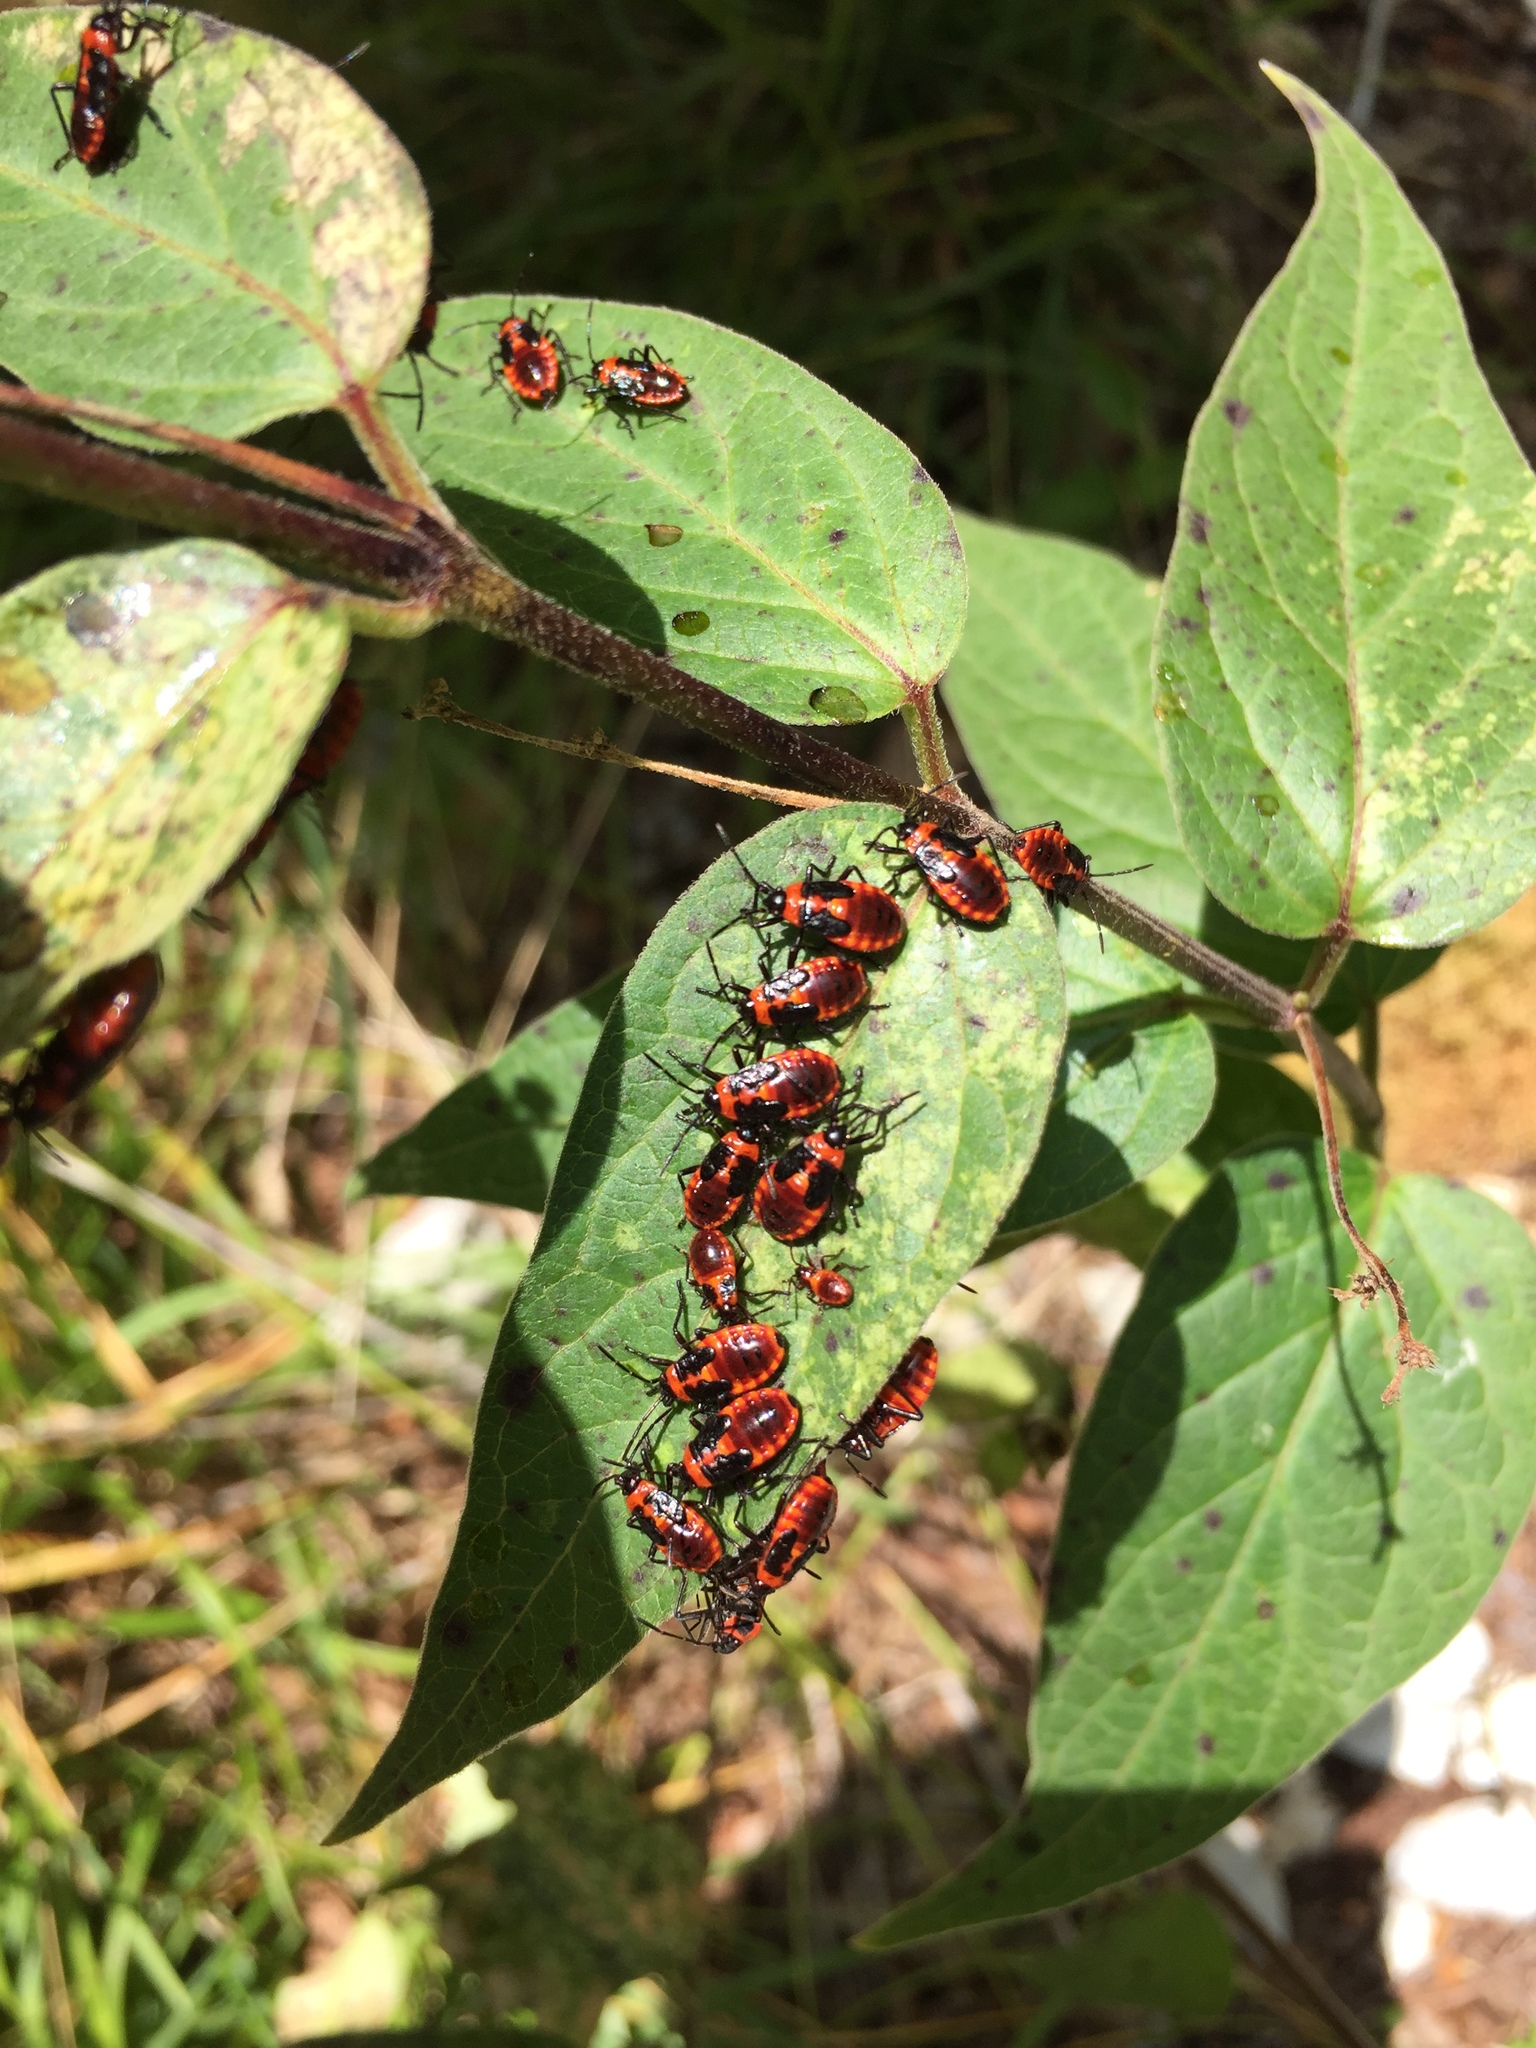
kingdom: Animalia
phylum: Arthropoda
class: Insecta
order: Hemiptera
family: Lygaeidae
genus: Tropidothorax
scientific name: Tropidothorax leucopterus
